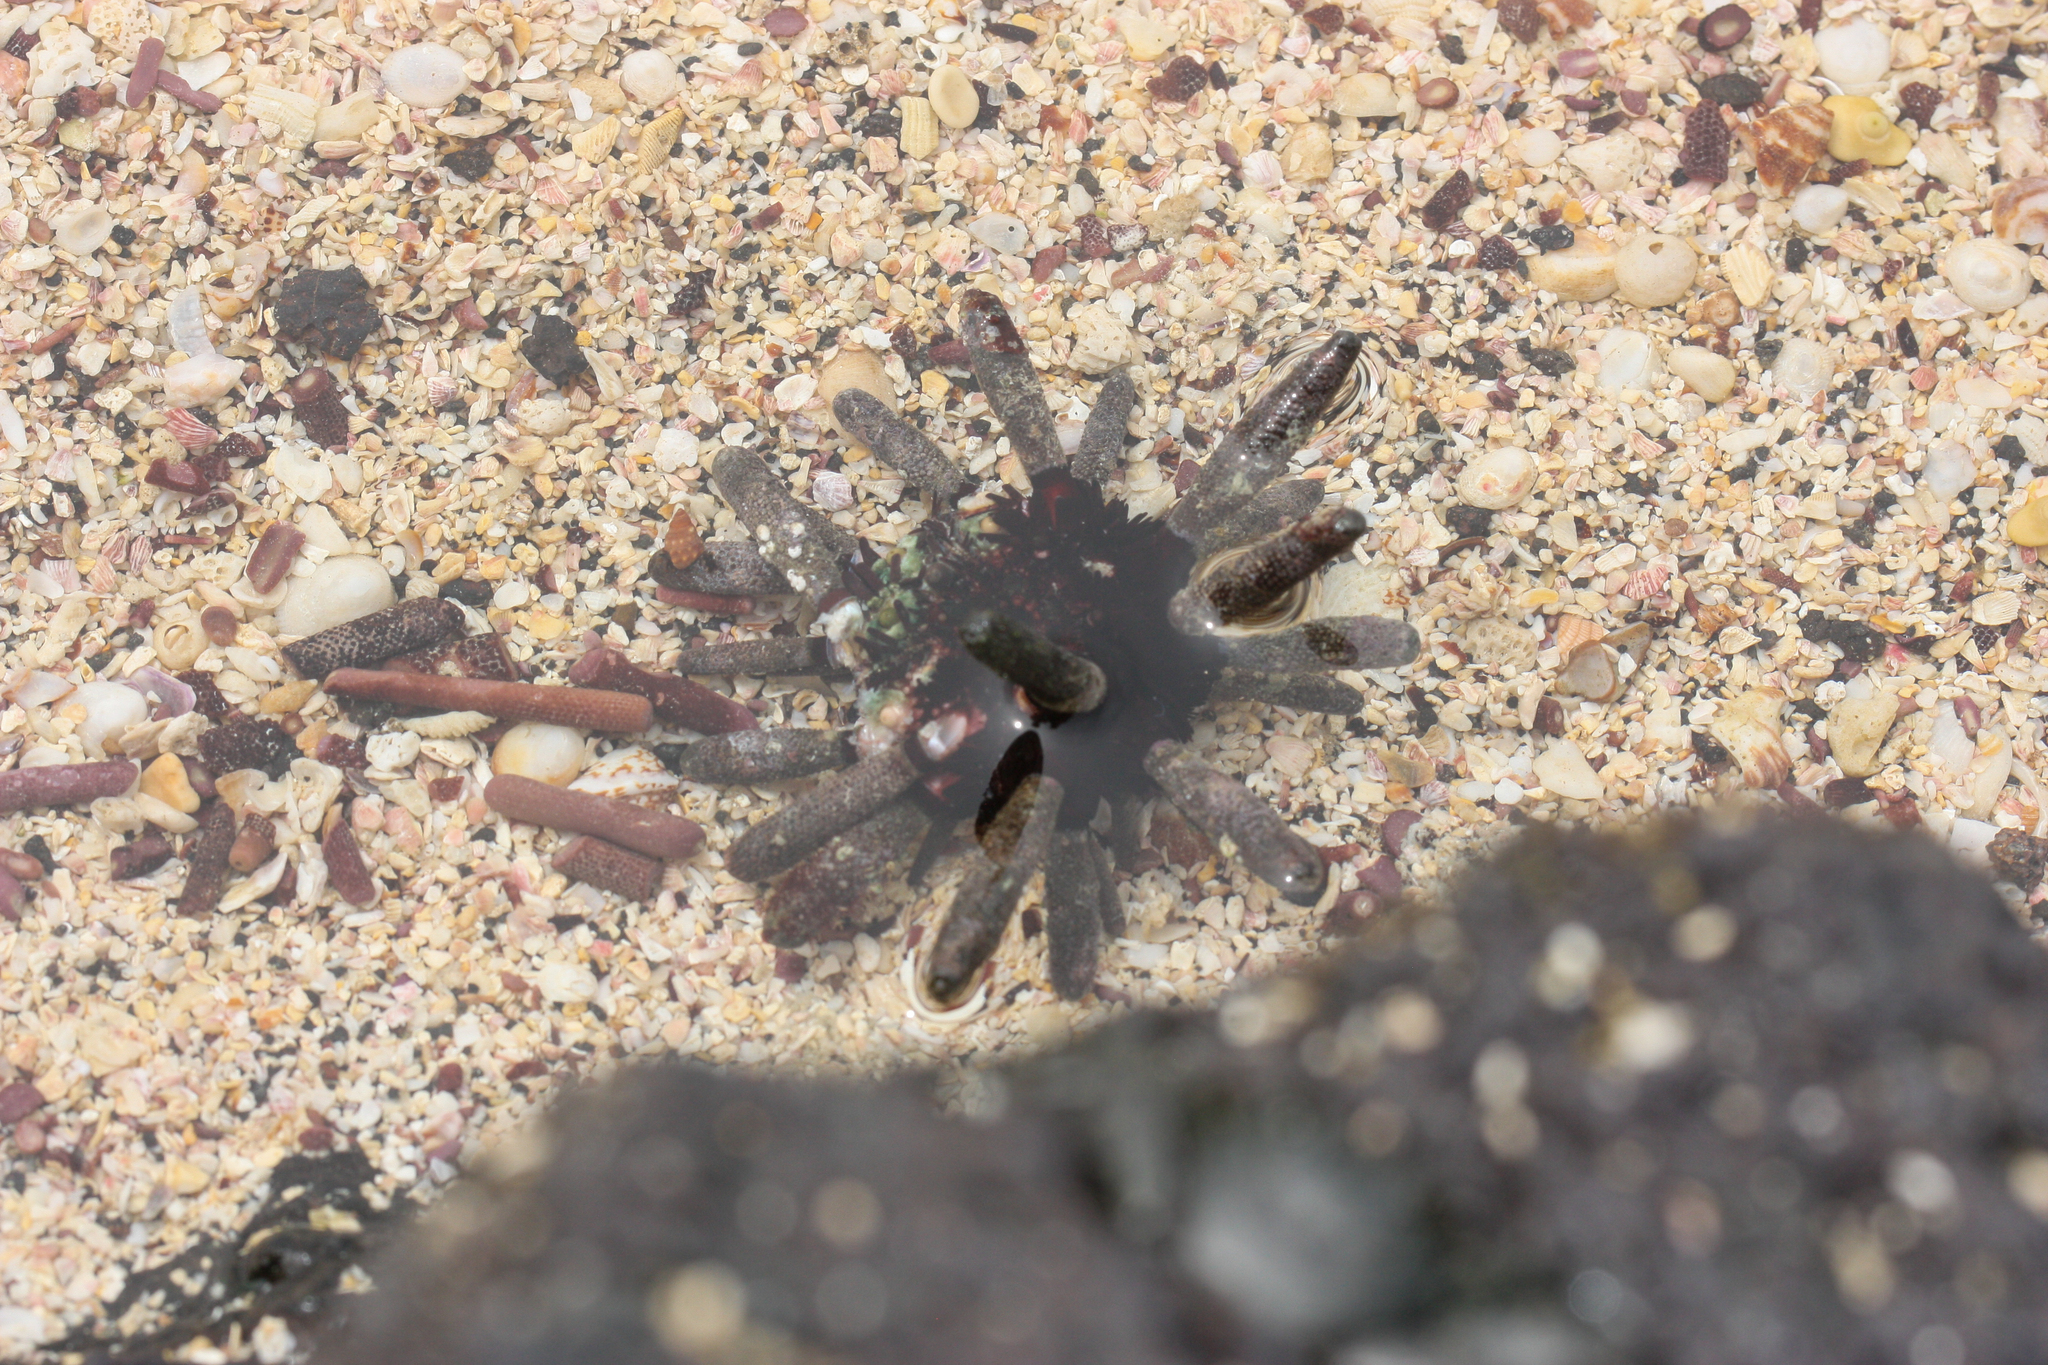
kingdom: Animalia
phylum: Echinodermata
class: Echinoidea
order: Cidaroida
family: Cidaridae
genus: Eucidaris
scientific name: Eucidaris galapagensis
